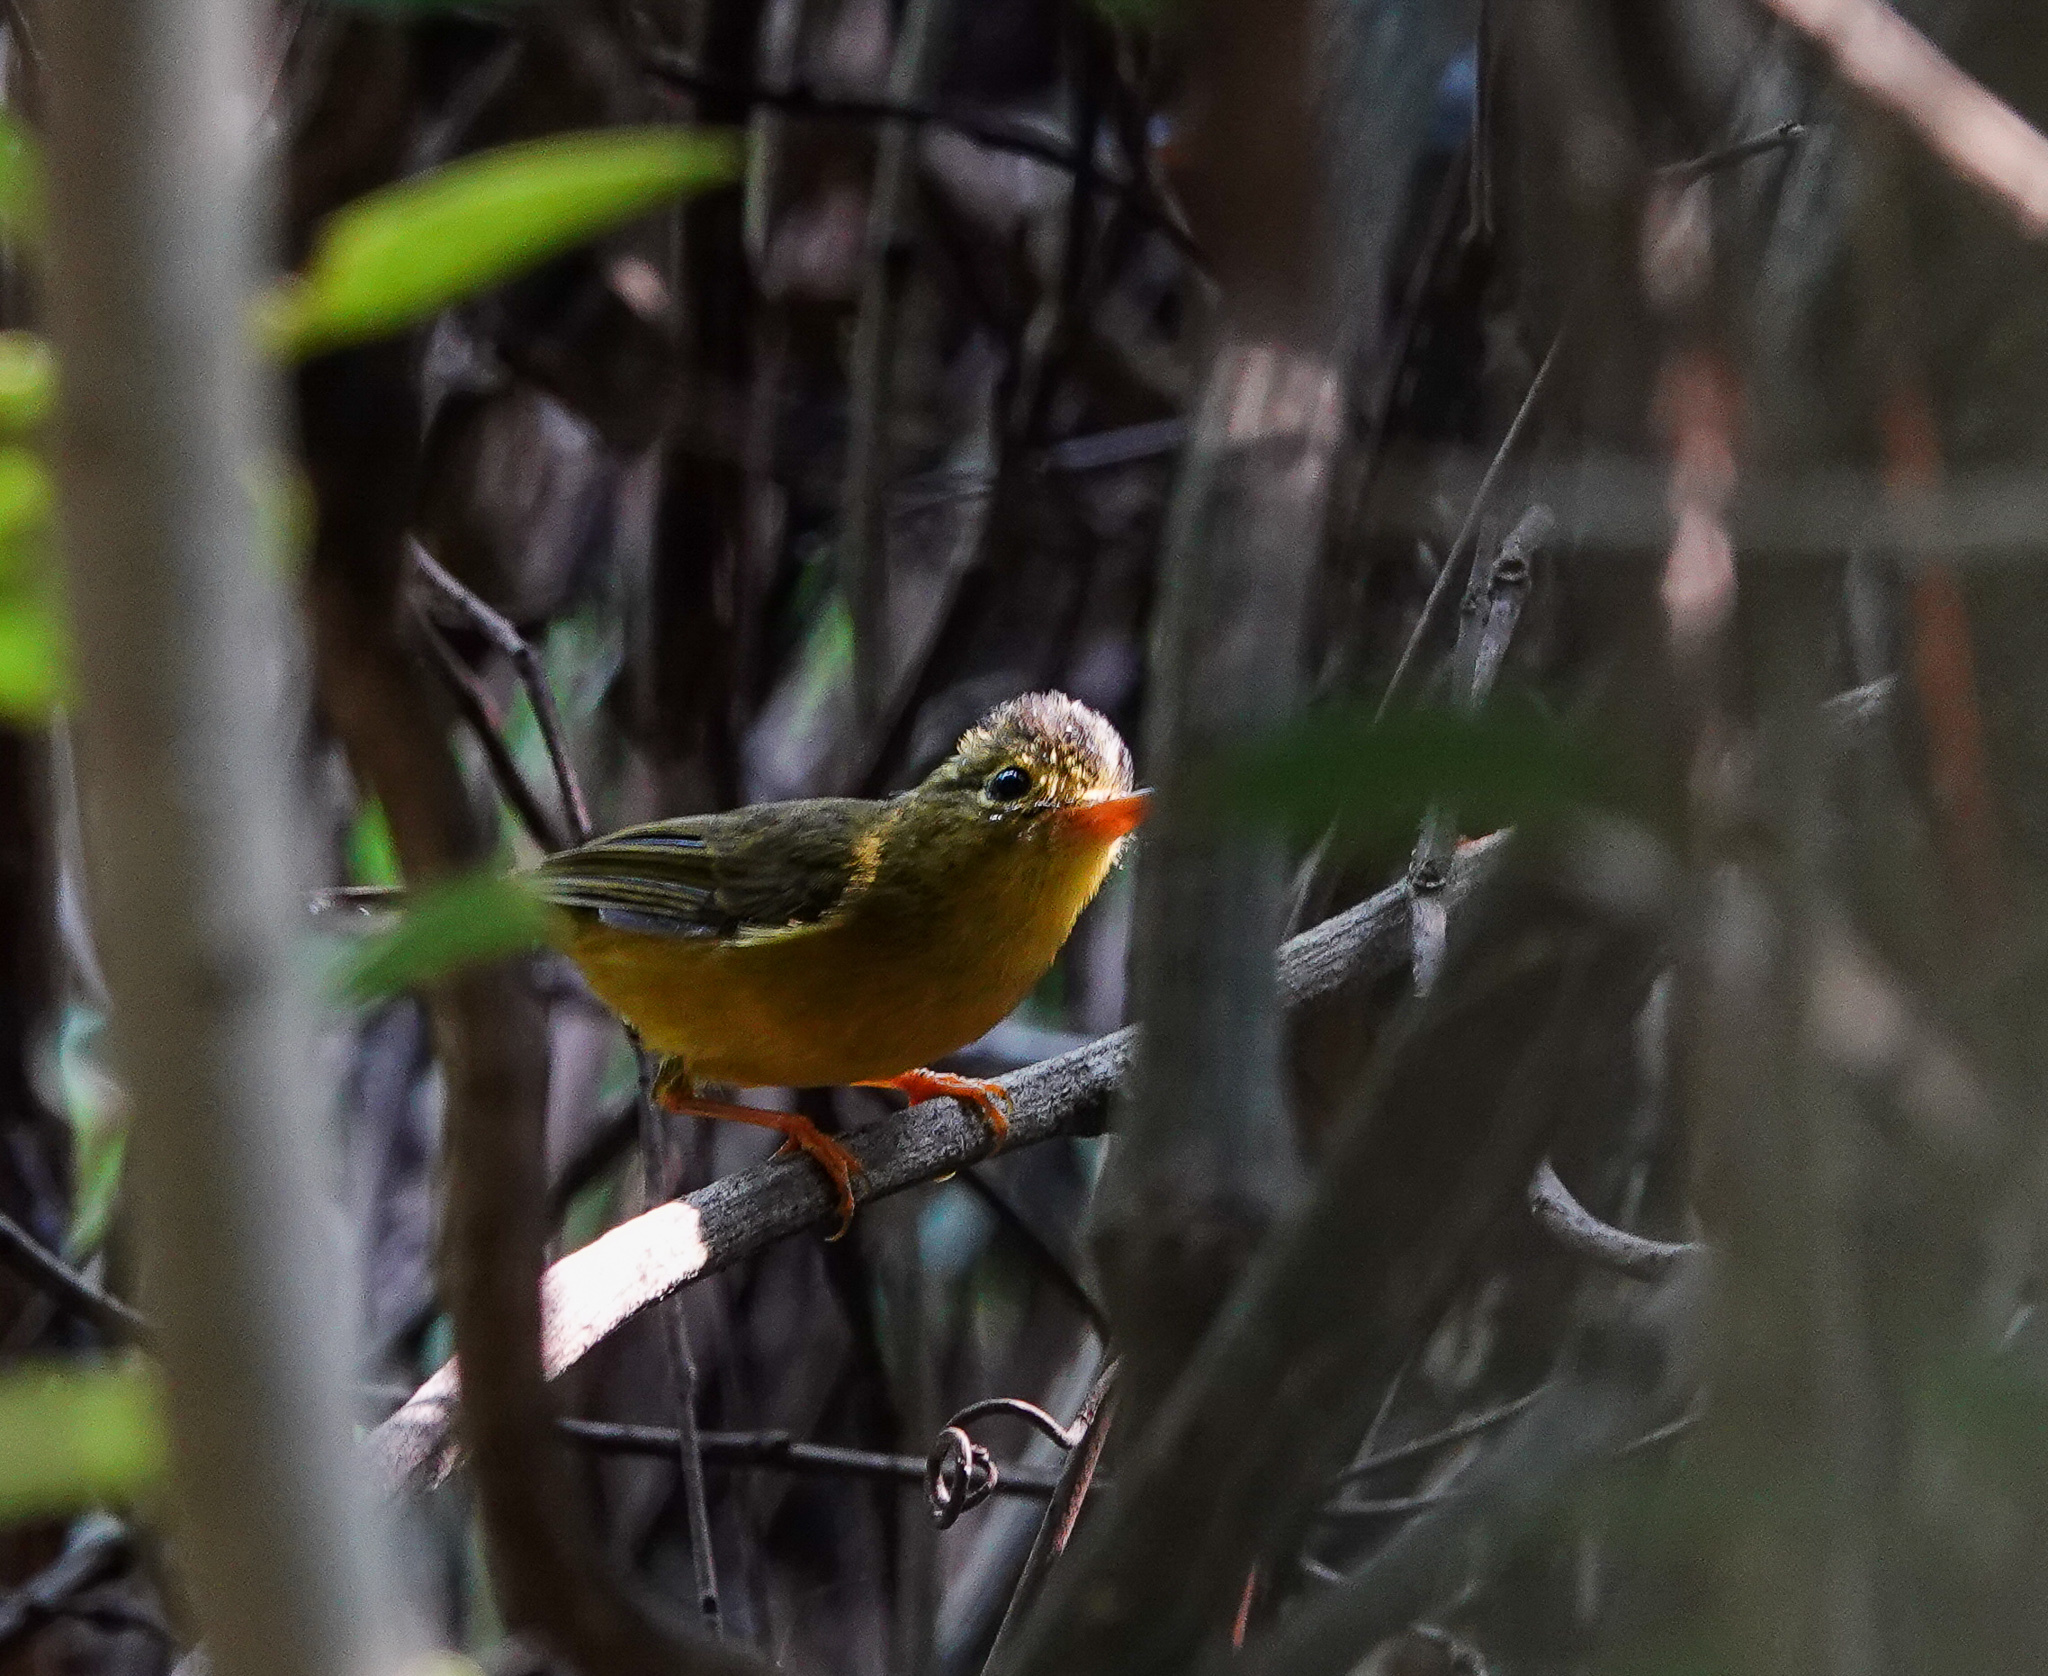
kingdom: Animalia
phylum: Chordata
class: Aves
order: Passeriformes
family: Phylloscopidae
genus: Seicercus
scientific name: Seicercus burkii
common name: Green-crowned warbler
